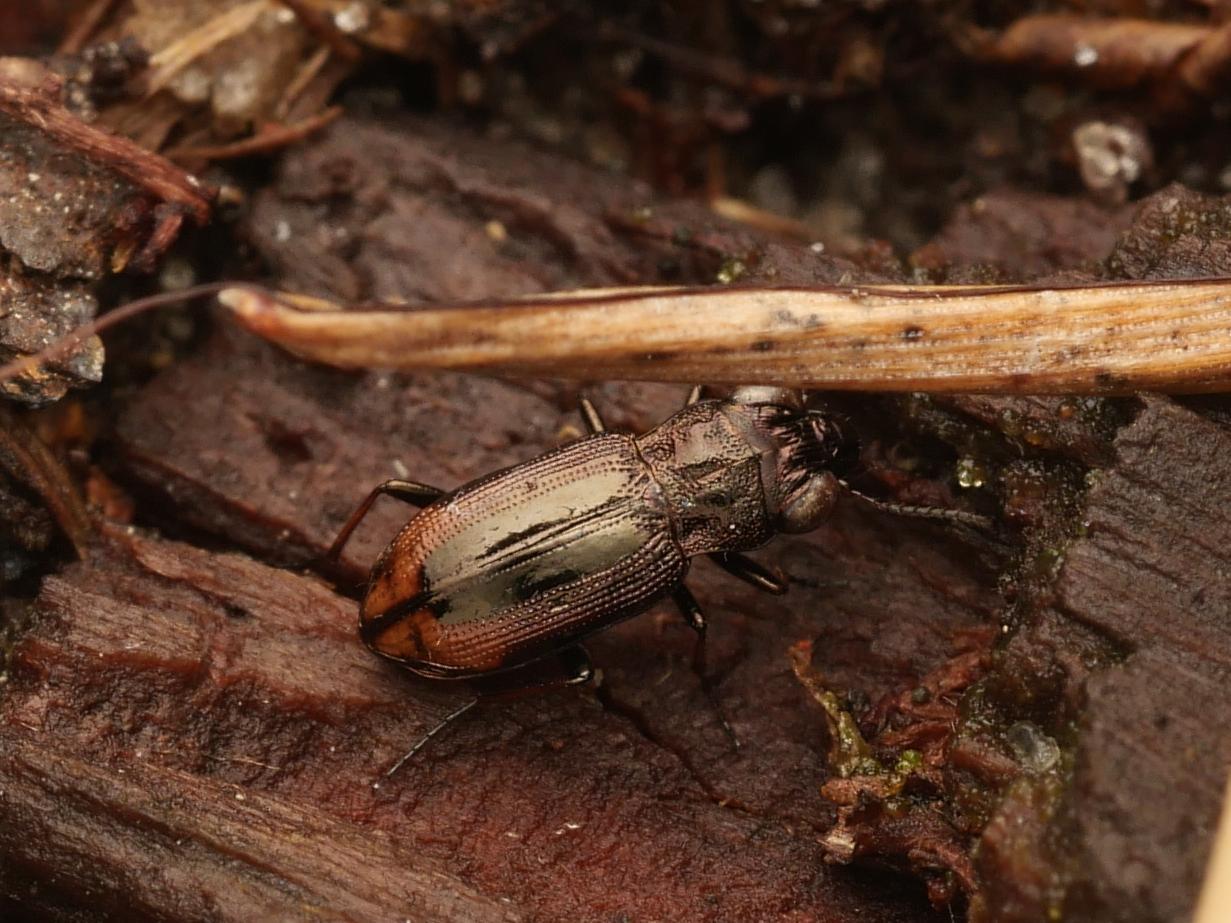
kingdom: Animalia
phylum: Arthropoda
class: Insecta
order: Coleoptera
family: Carabidae
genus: Notiophilus
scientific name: Notiophilus biguttatus
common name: Spotted gazelle beetle
